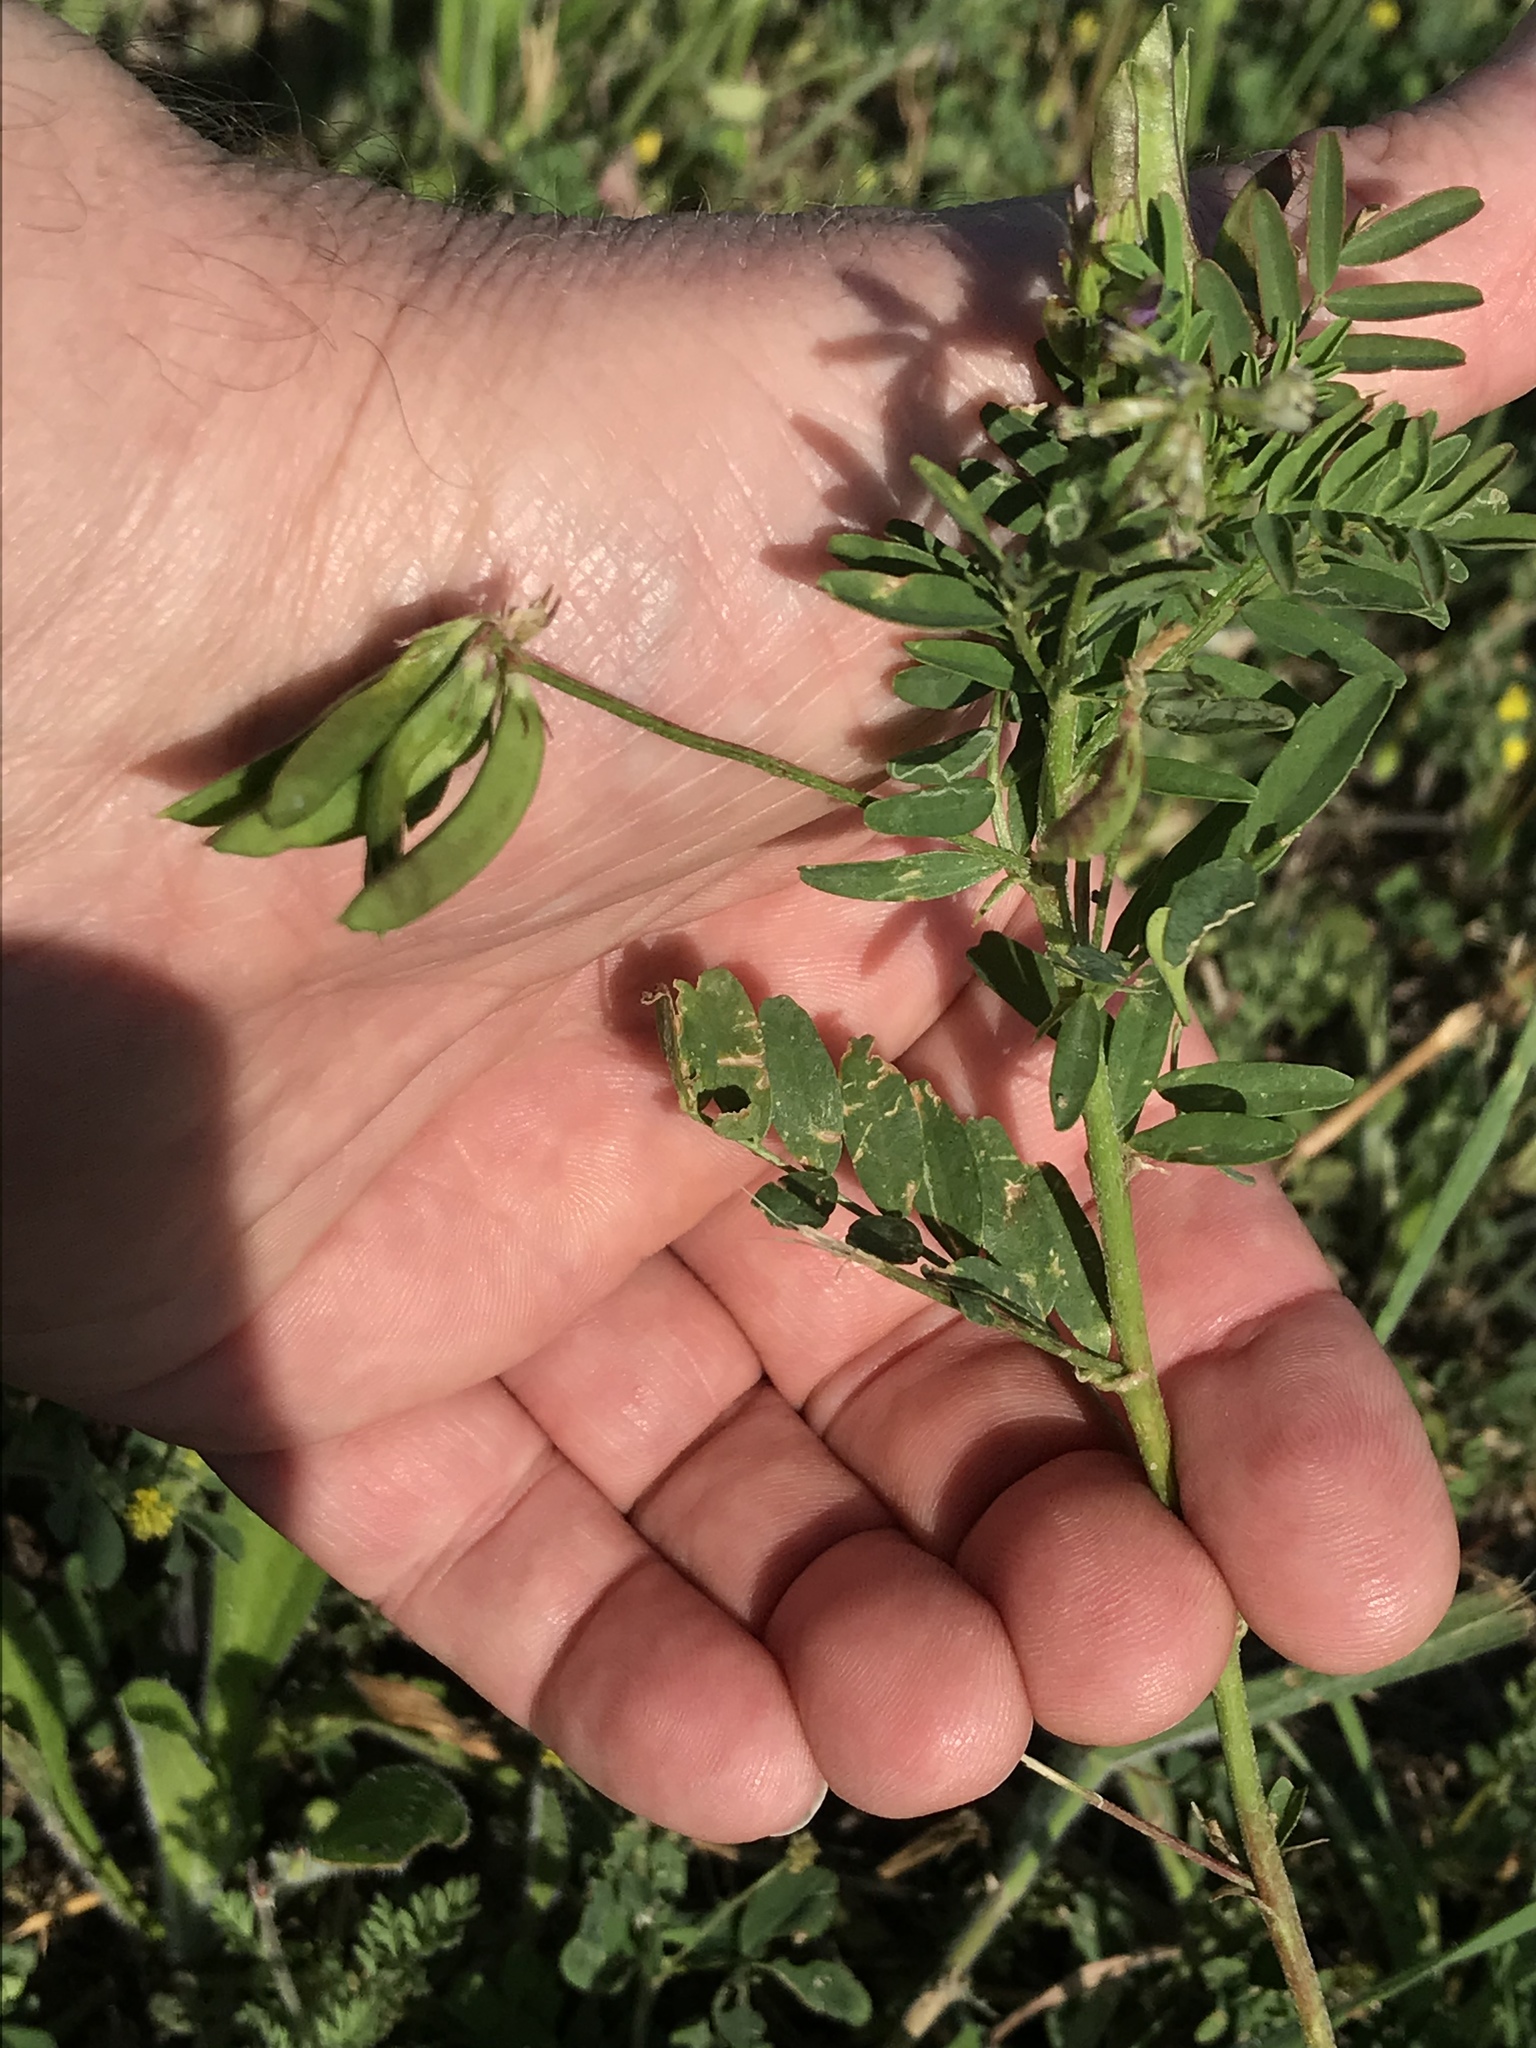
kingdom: Plantae
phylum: Tracheophyta
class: Magnoliopsida
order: Fabales
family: Fabaceae
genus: Astragalus
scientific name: Astragalus nuttallianus
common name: Smallflowered milkvetch
